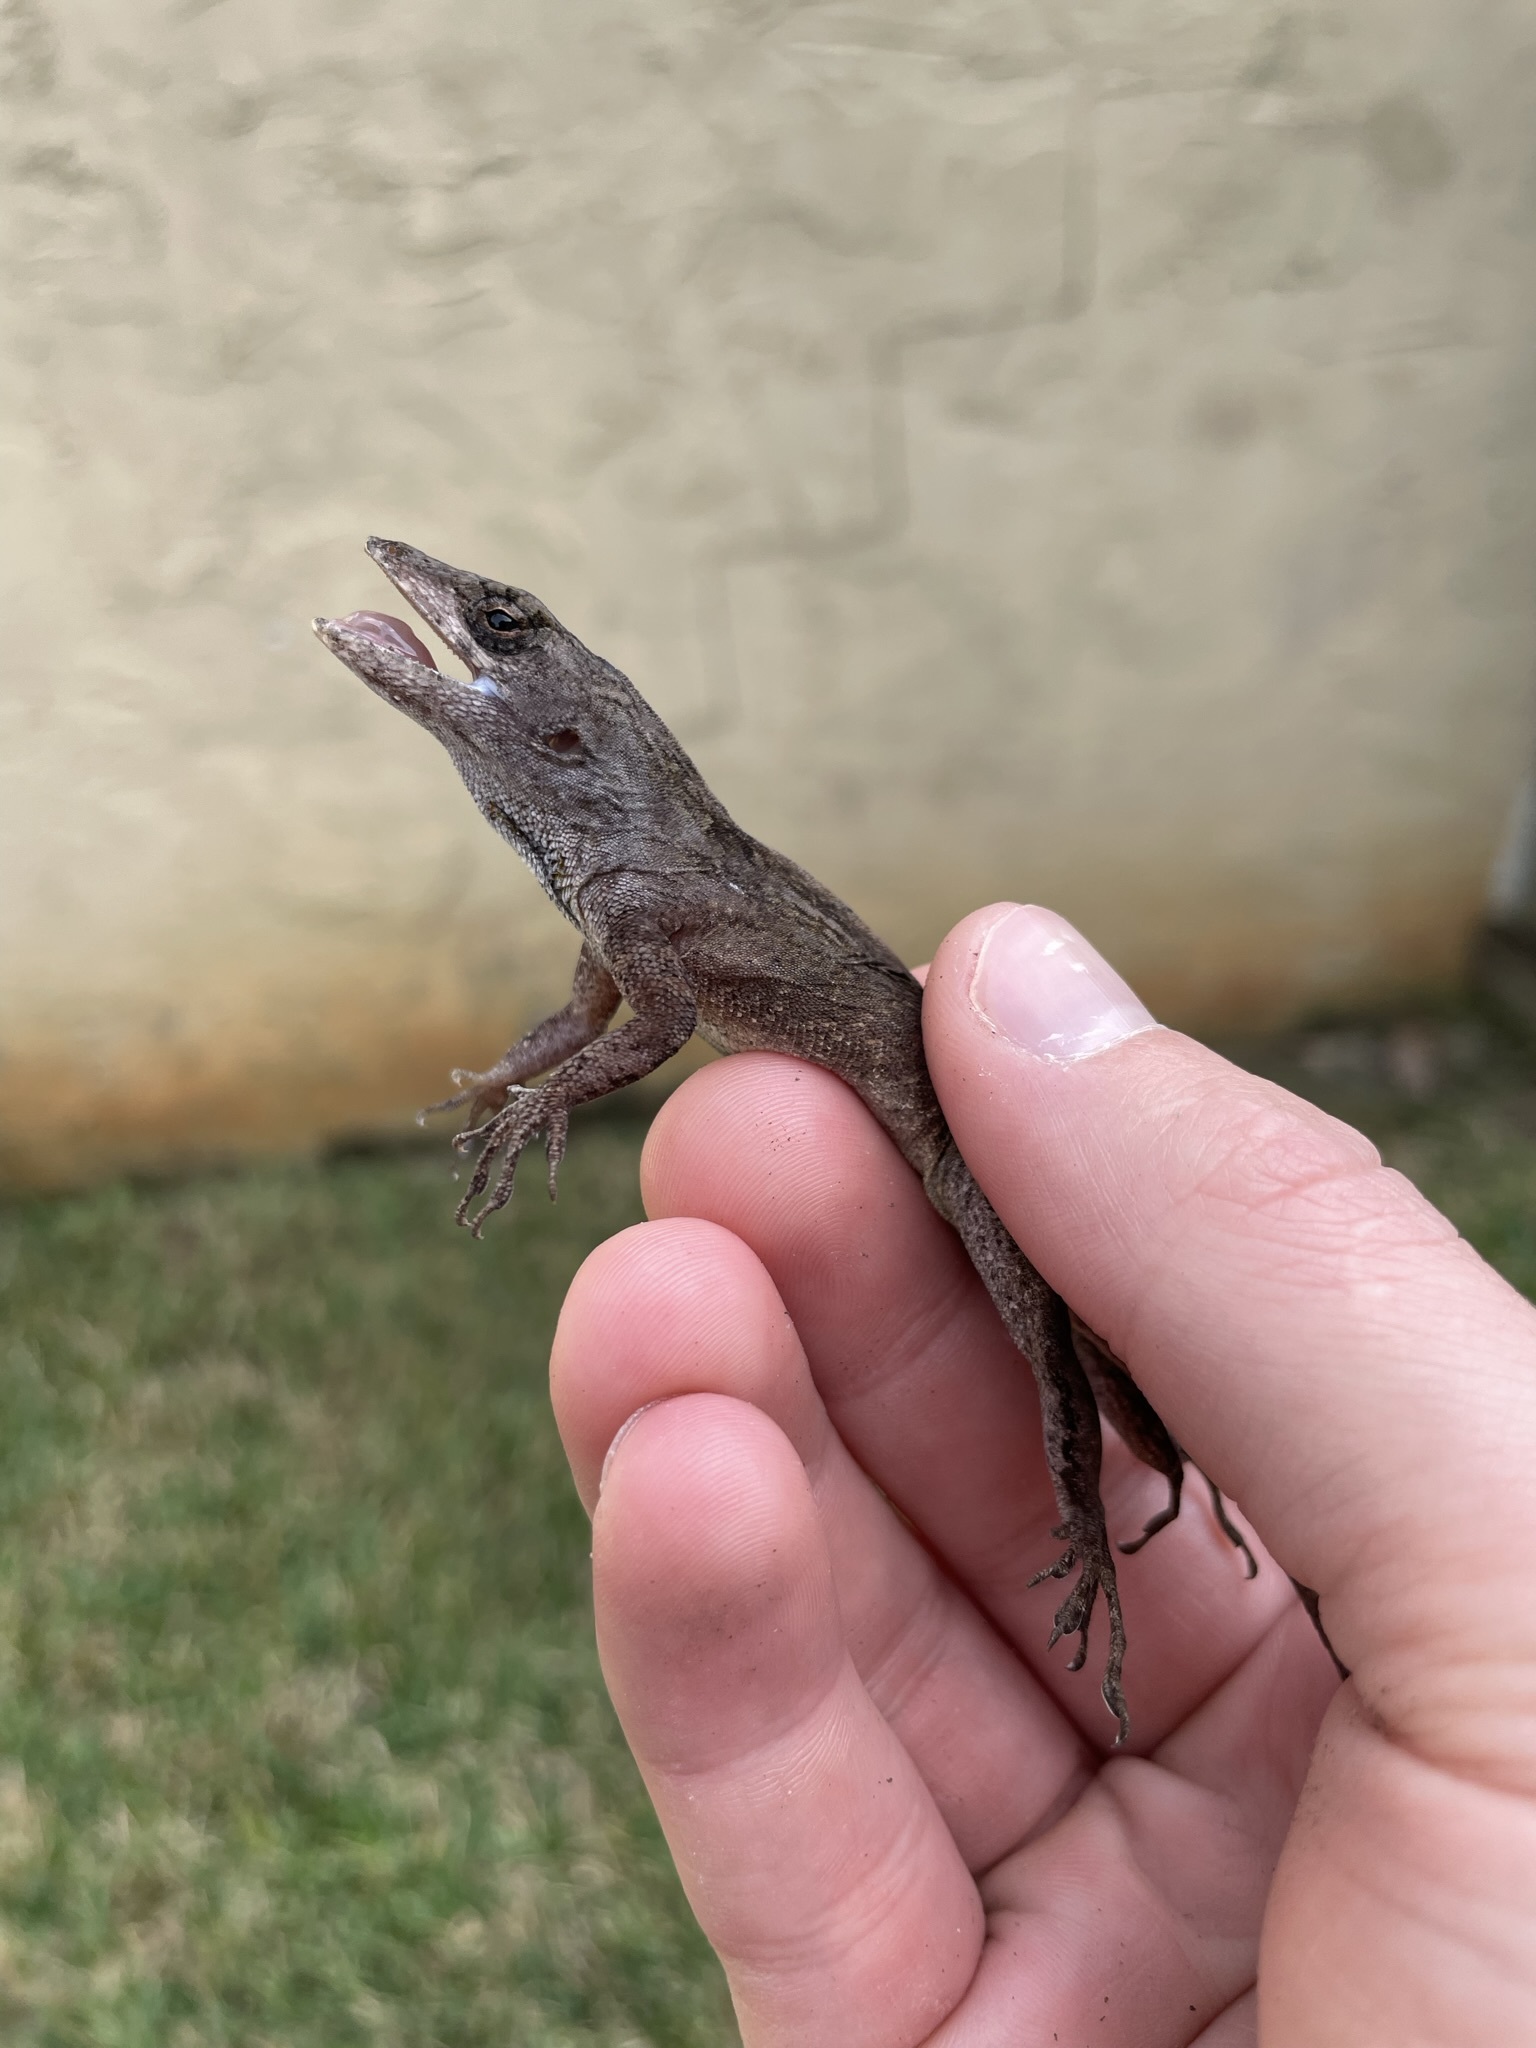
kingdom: Animalia
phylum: Chordata
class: Squamata
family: Dactyloidae
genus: Anolis
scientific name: Anolis sagrei
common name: Brown anole
